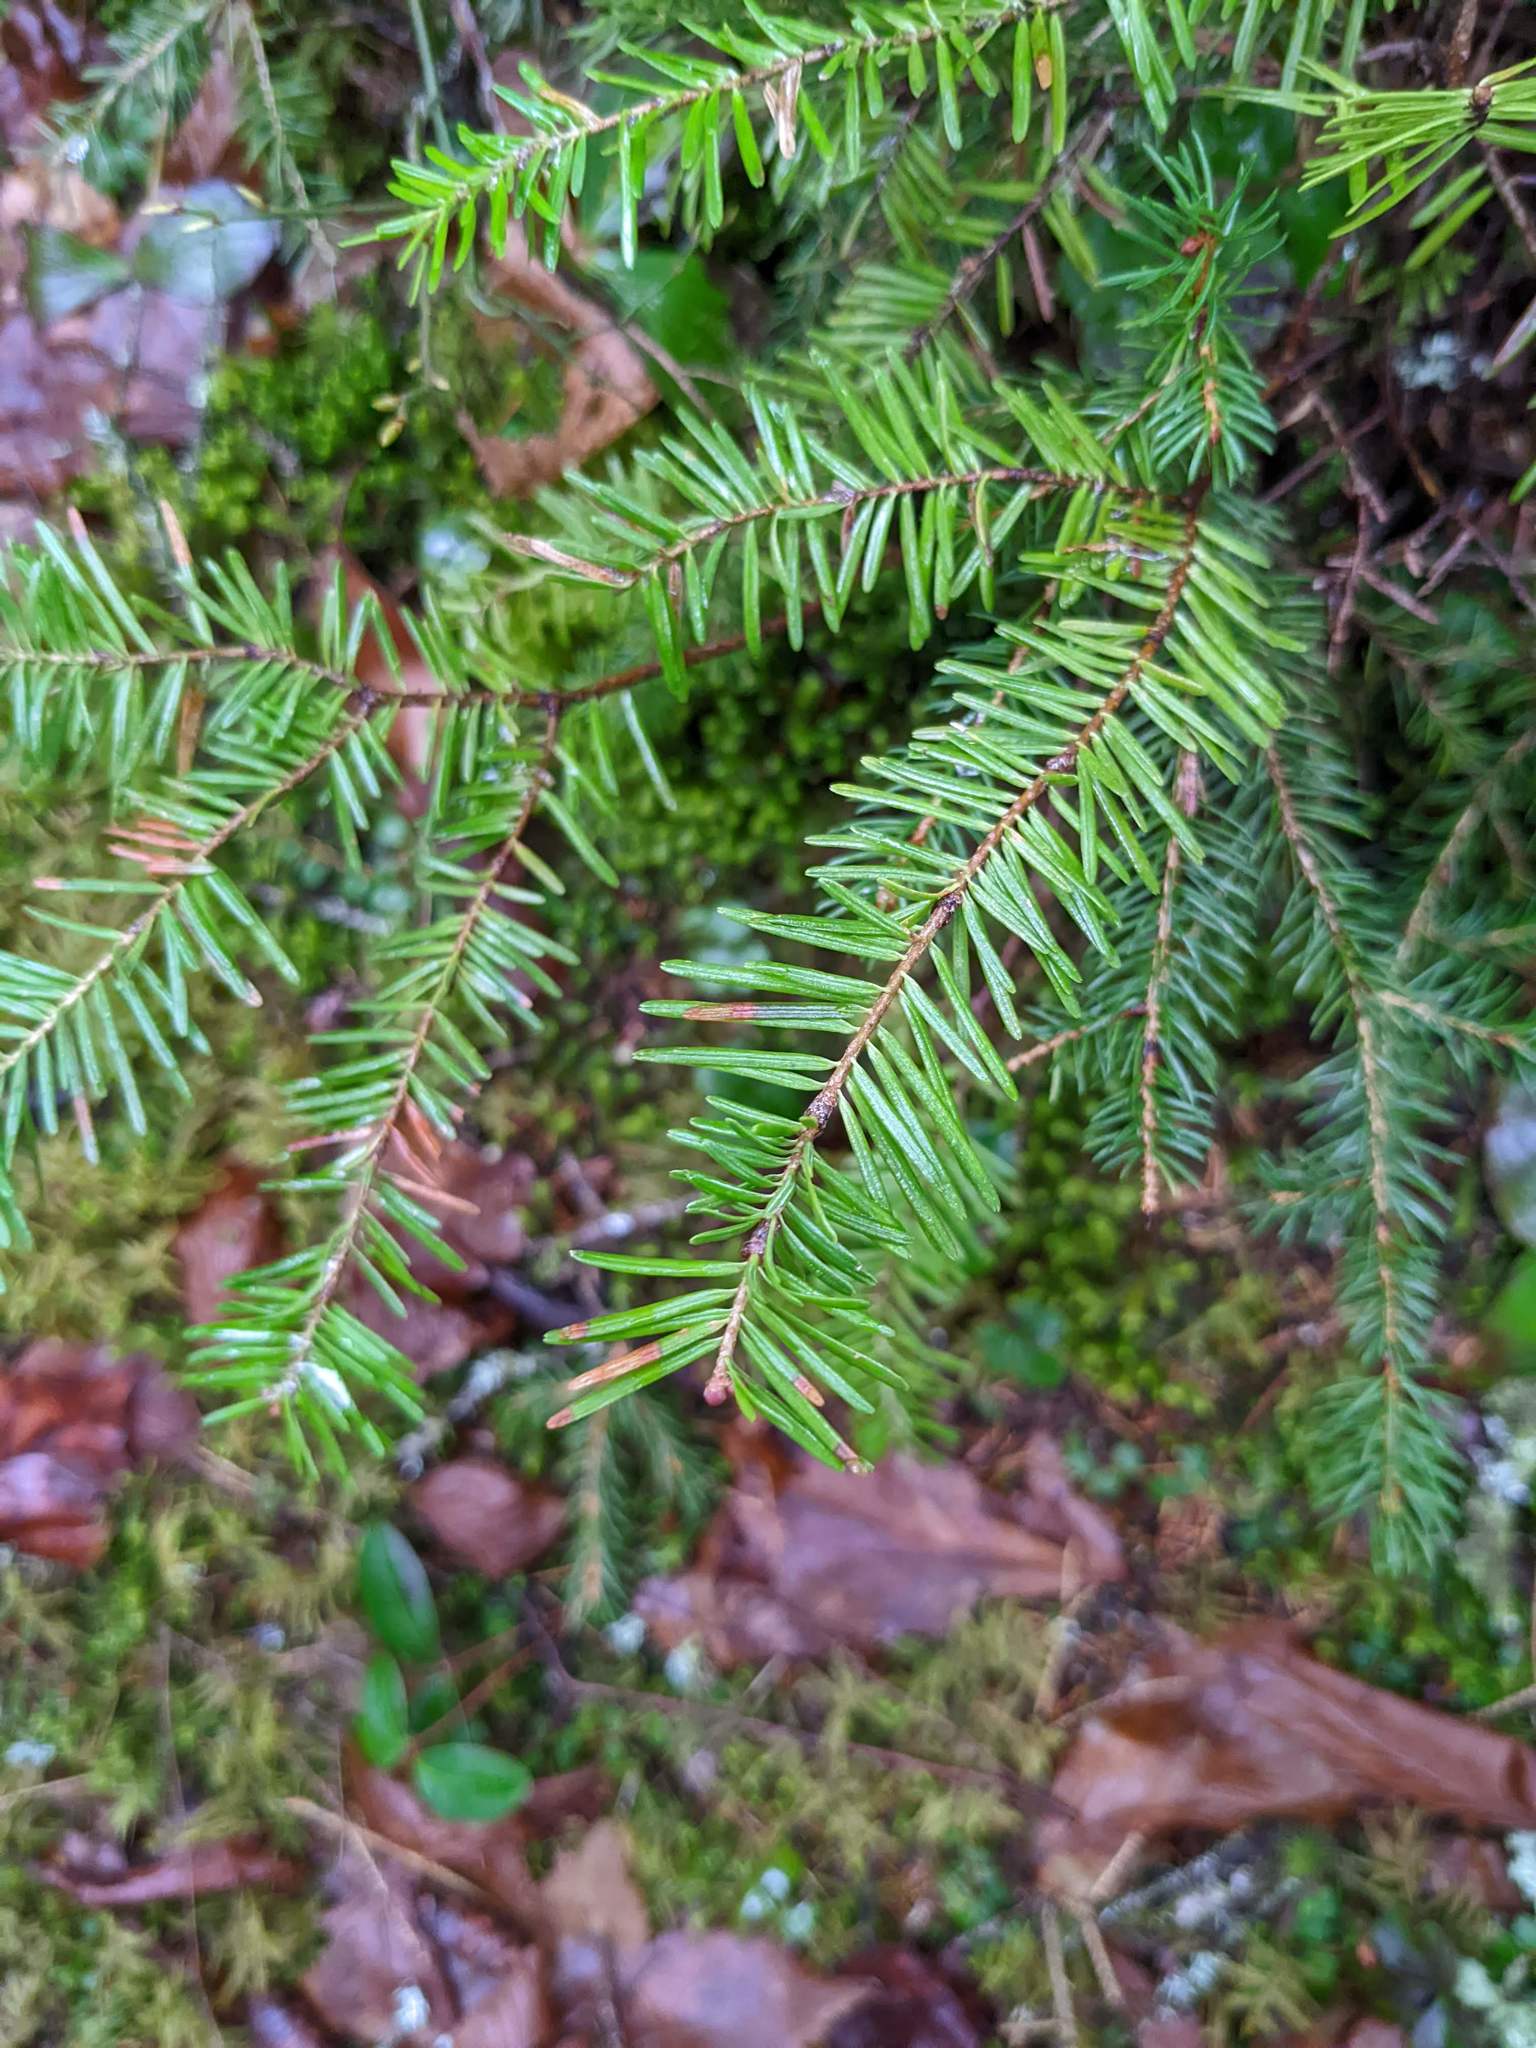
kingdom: Plantae
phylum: Tracheophyta
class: Pinopsida
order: Pinales
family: Pinaceae
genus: Abies
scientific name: Abies balsamea
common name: Balsam fir
